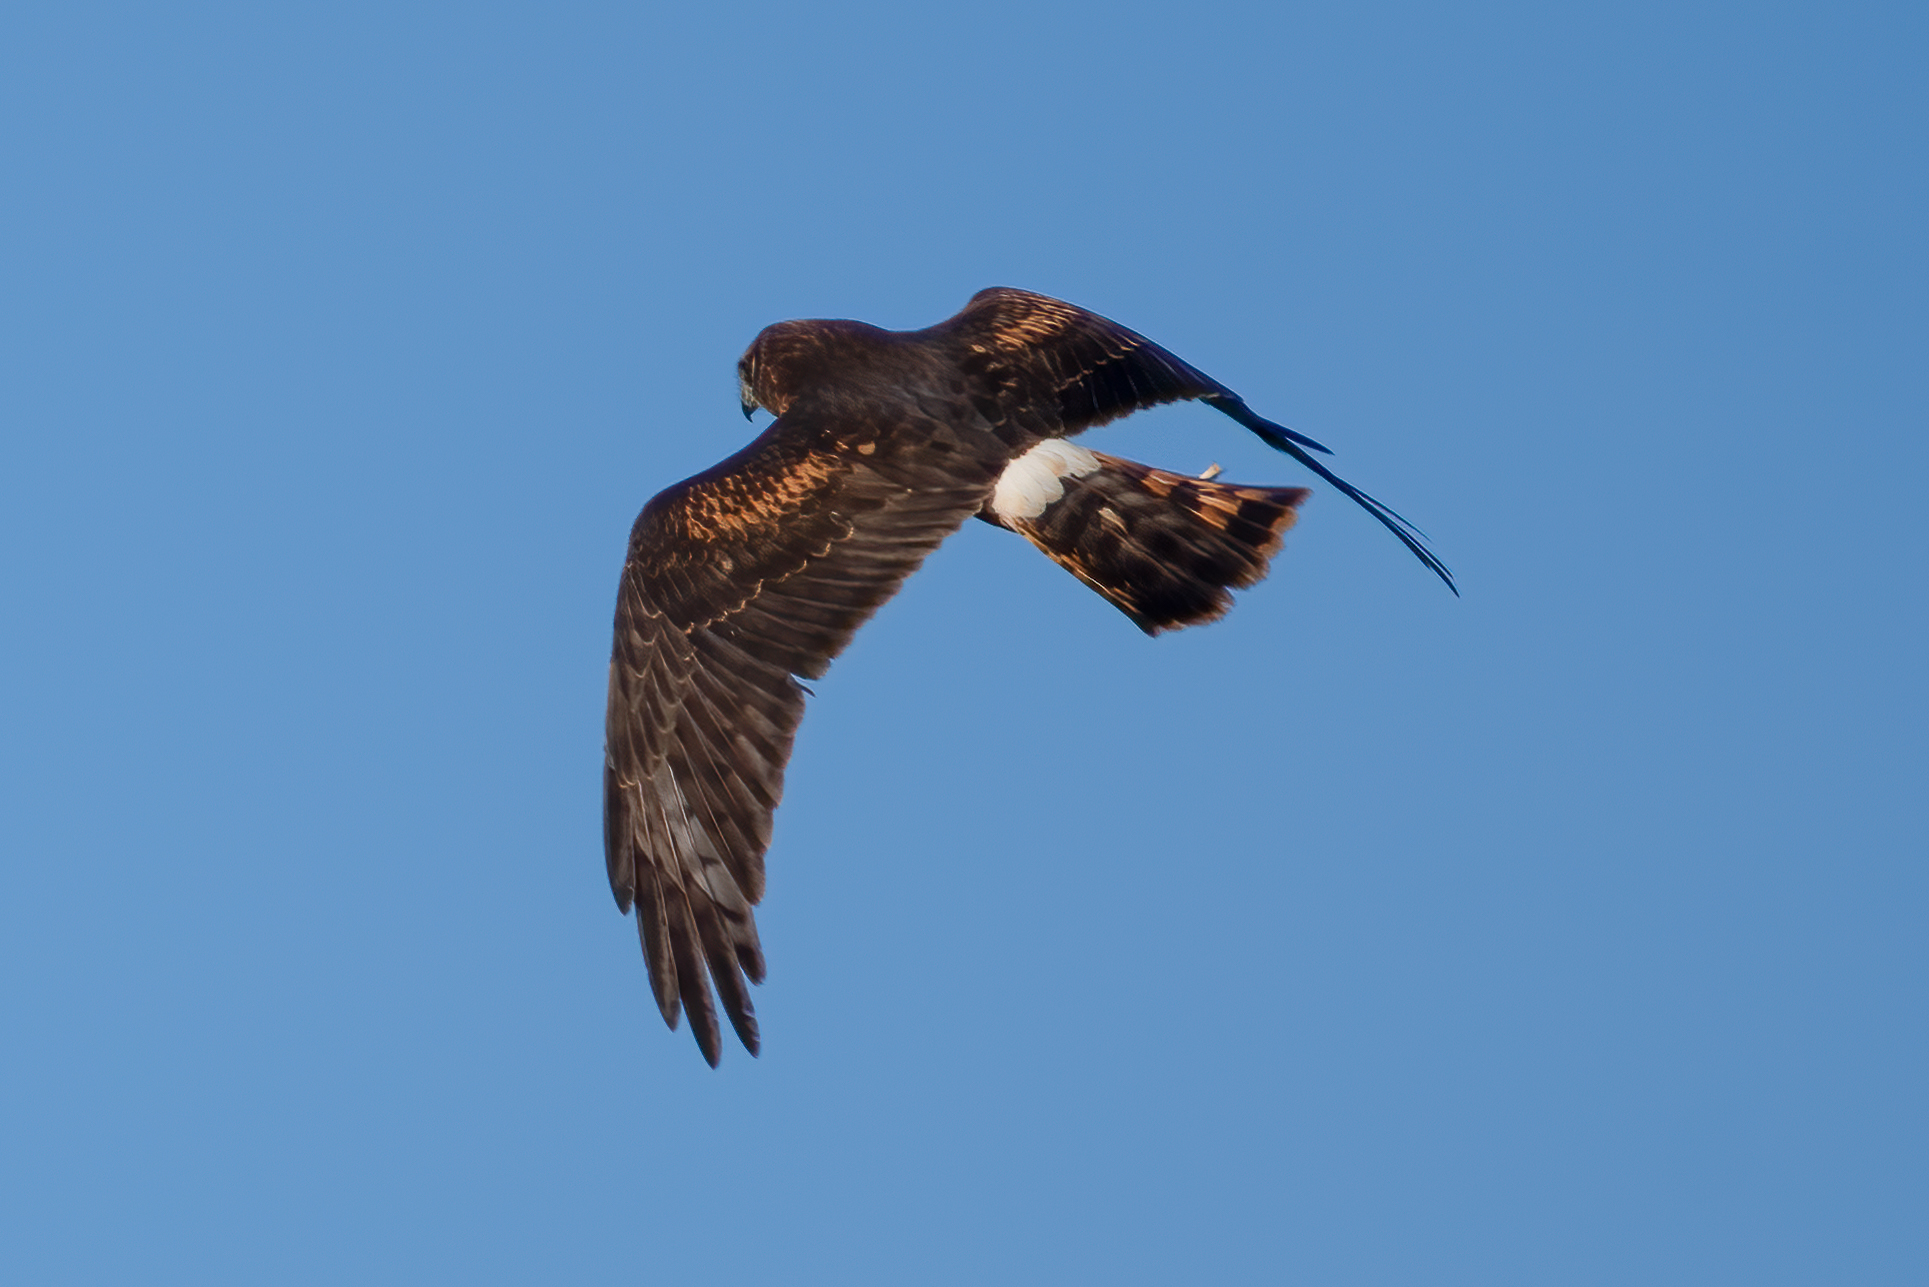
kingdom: Animalia
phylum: Chordata
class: Aves
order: Accipitriformes
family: Accipitridae
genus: Circus
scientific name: Circus cyaneus
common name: Hen harrier
